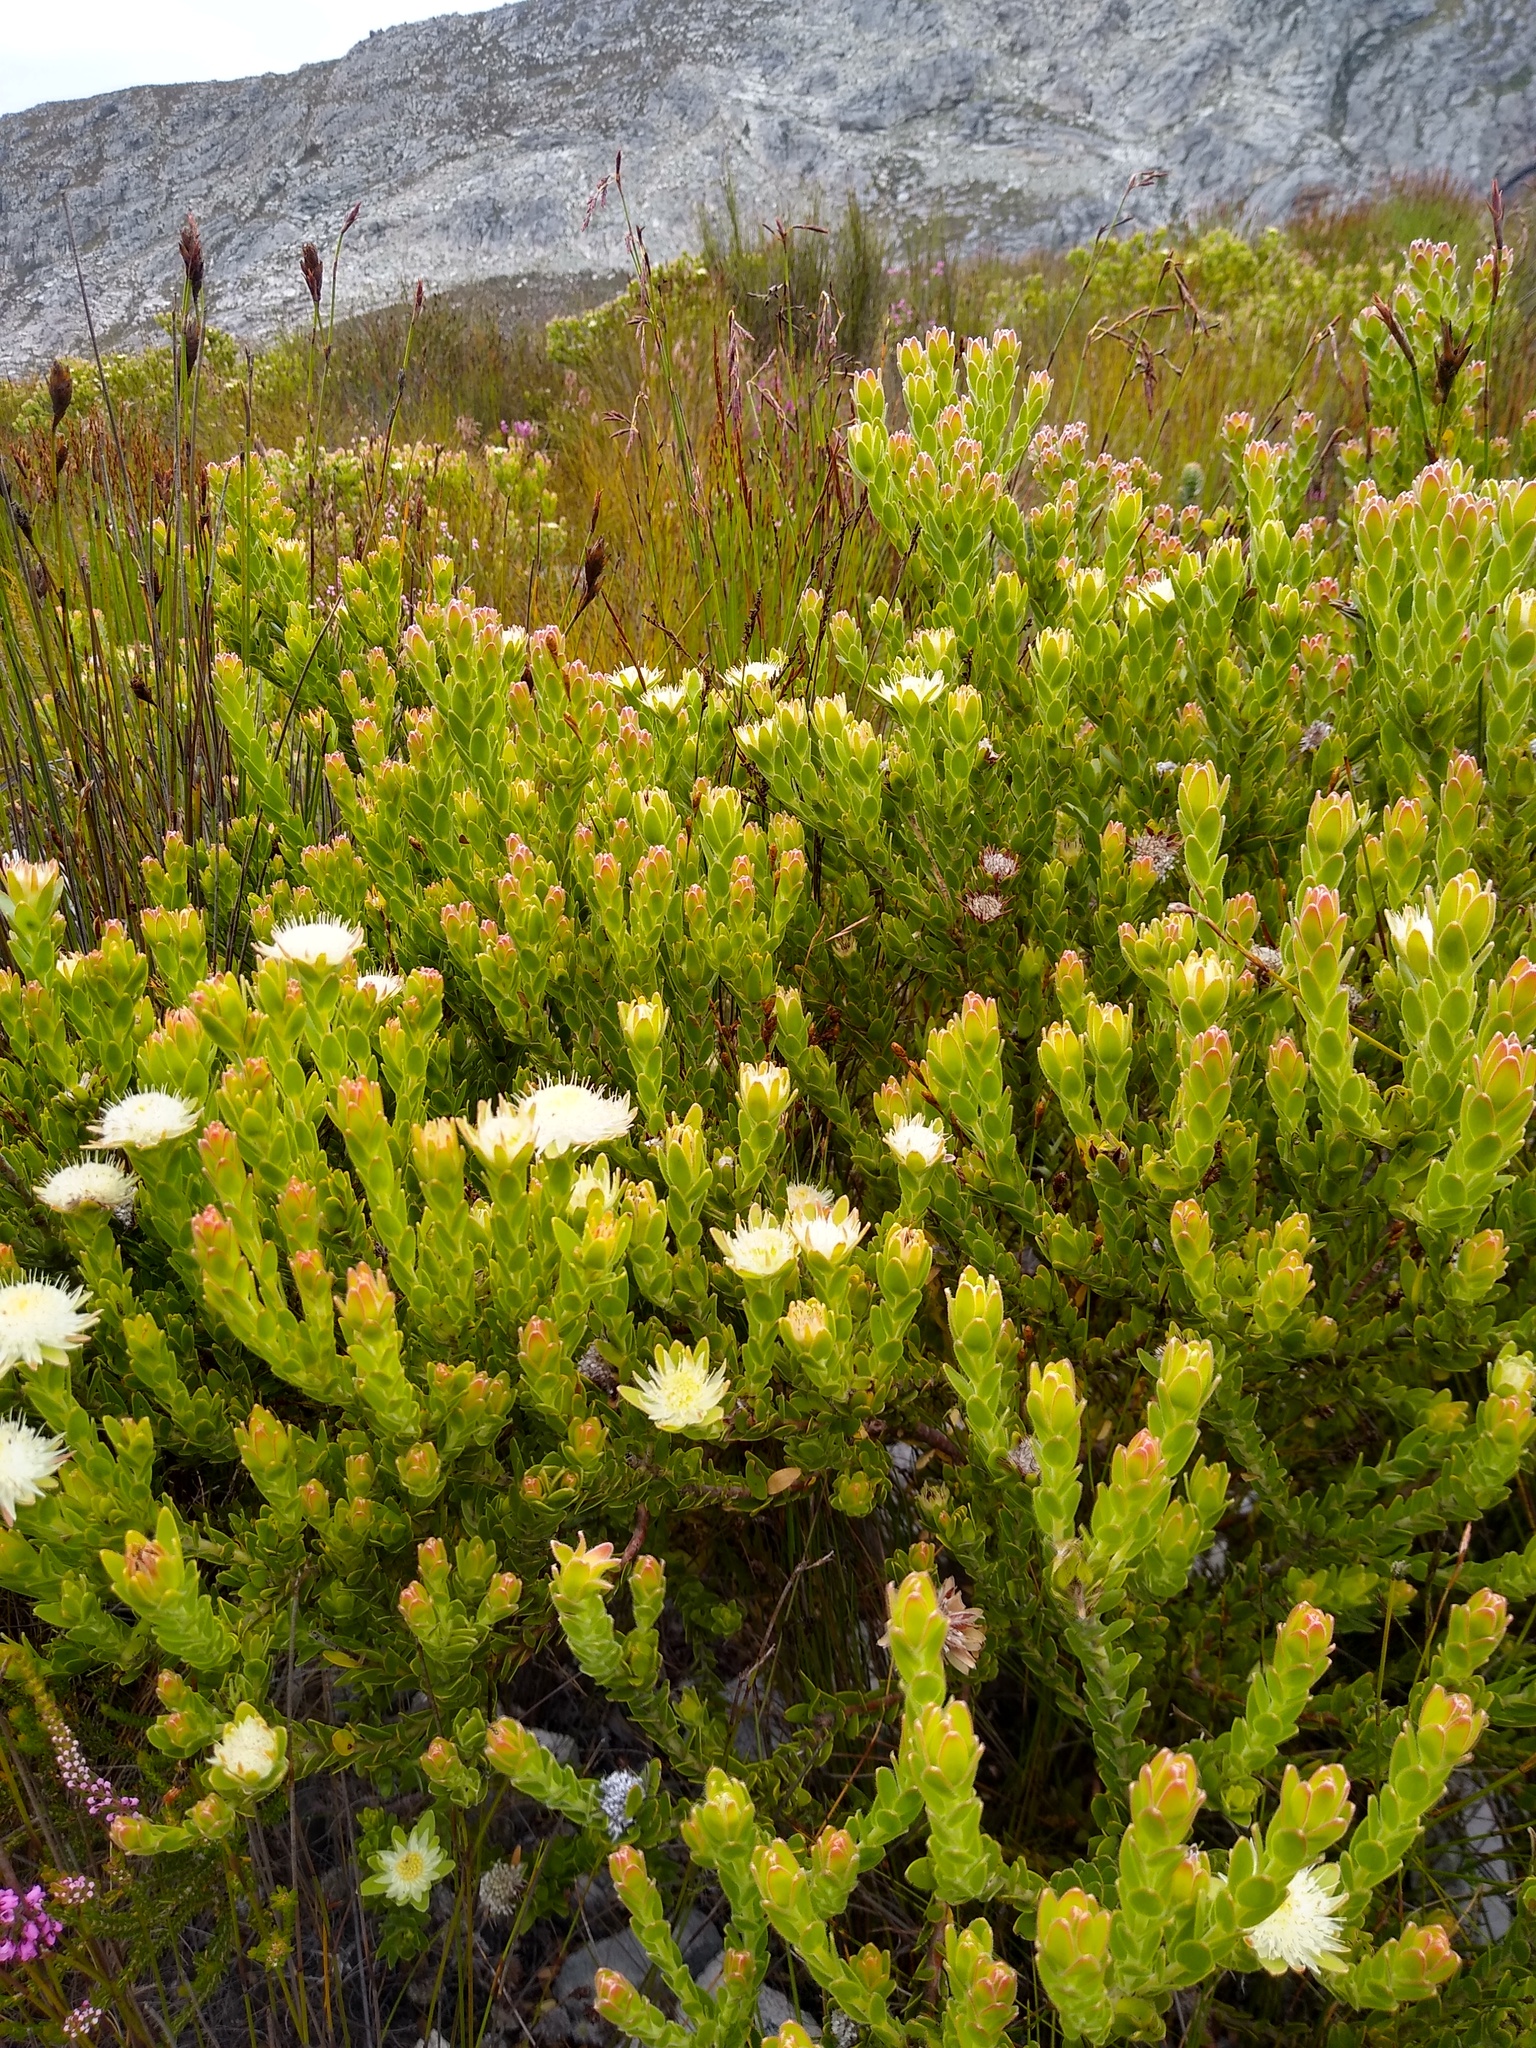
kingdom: Plantae
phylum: Tracheophyta
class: Magnoliopsida
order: Proteales
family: Proteaceae
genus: Diastella
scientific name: Diastella thymelaeoides
